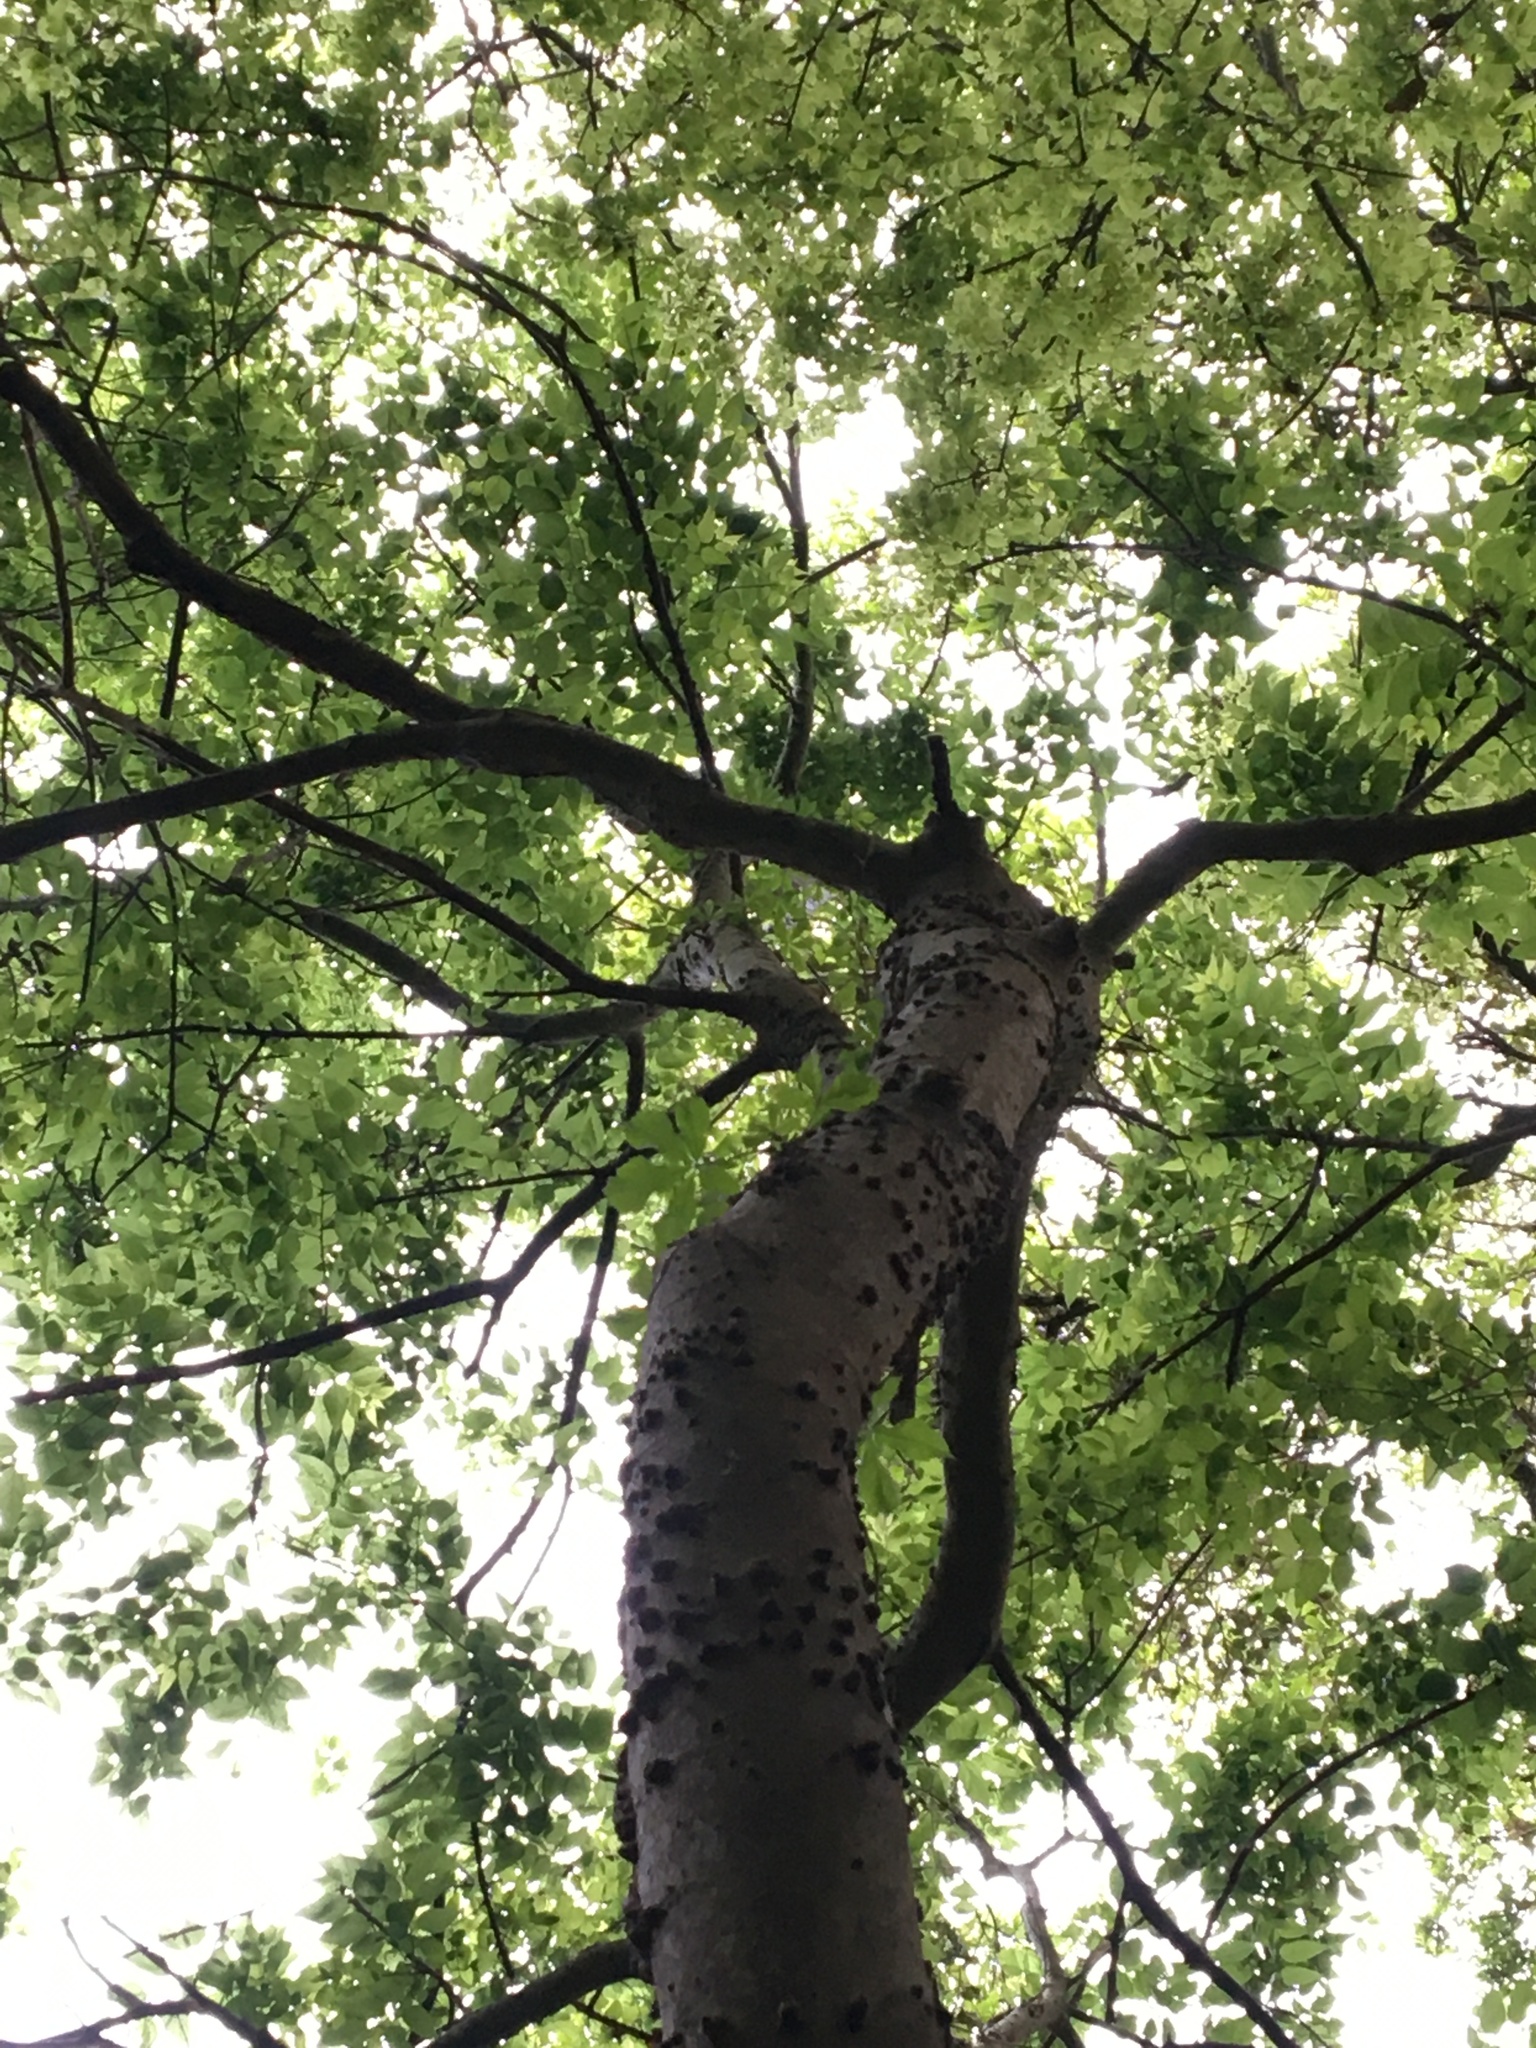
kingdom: Plantae
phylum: Tracheophyta
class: Magnoliopsida
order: Rosales
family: Cannabaceae
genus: Celtis
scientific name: Celtis laevigata
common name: Sugarberry
